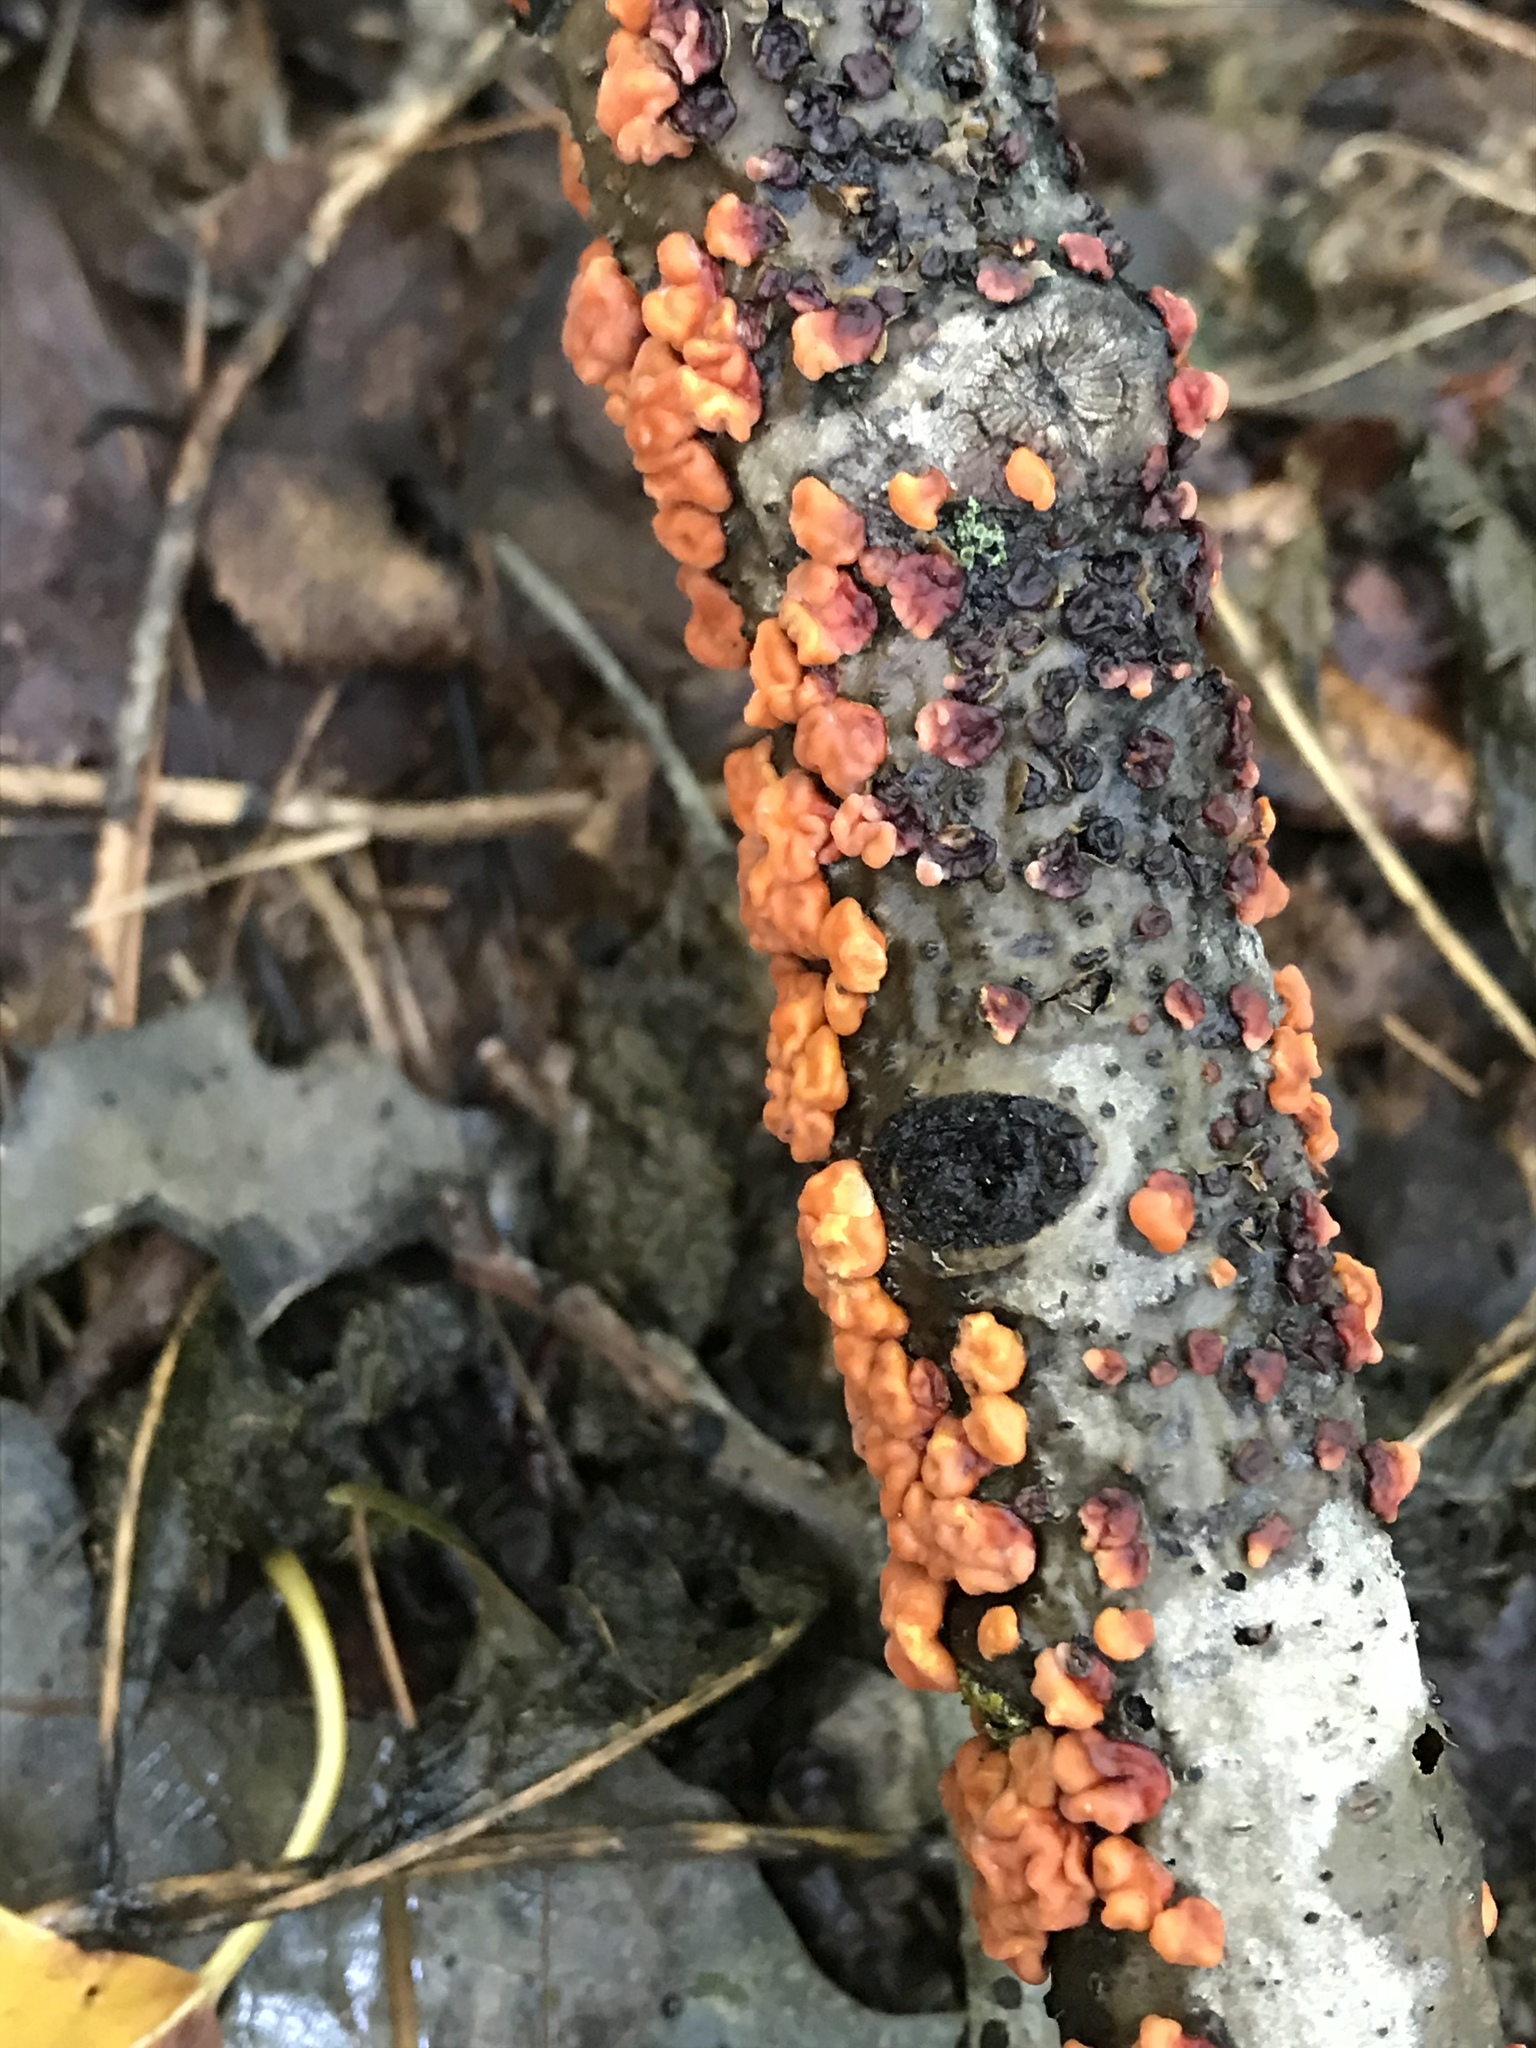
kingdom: Fungi
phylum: Basidiomycota
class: Agaricomycetes
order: Russulales
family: Peniophoraceae
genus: Peniophora
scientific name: Peniophora rufa
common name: Red tree brain fungus
